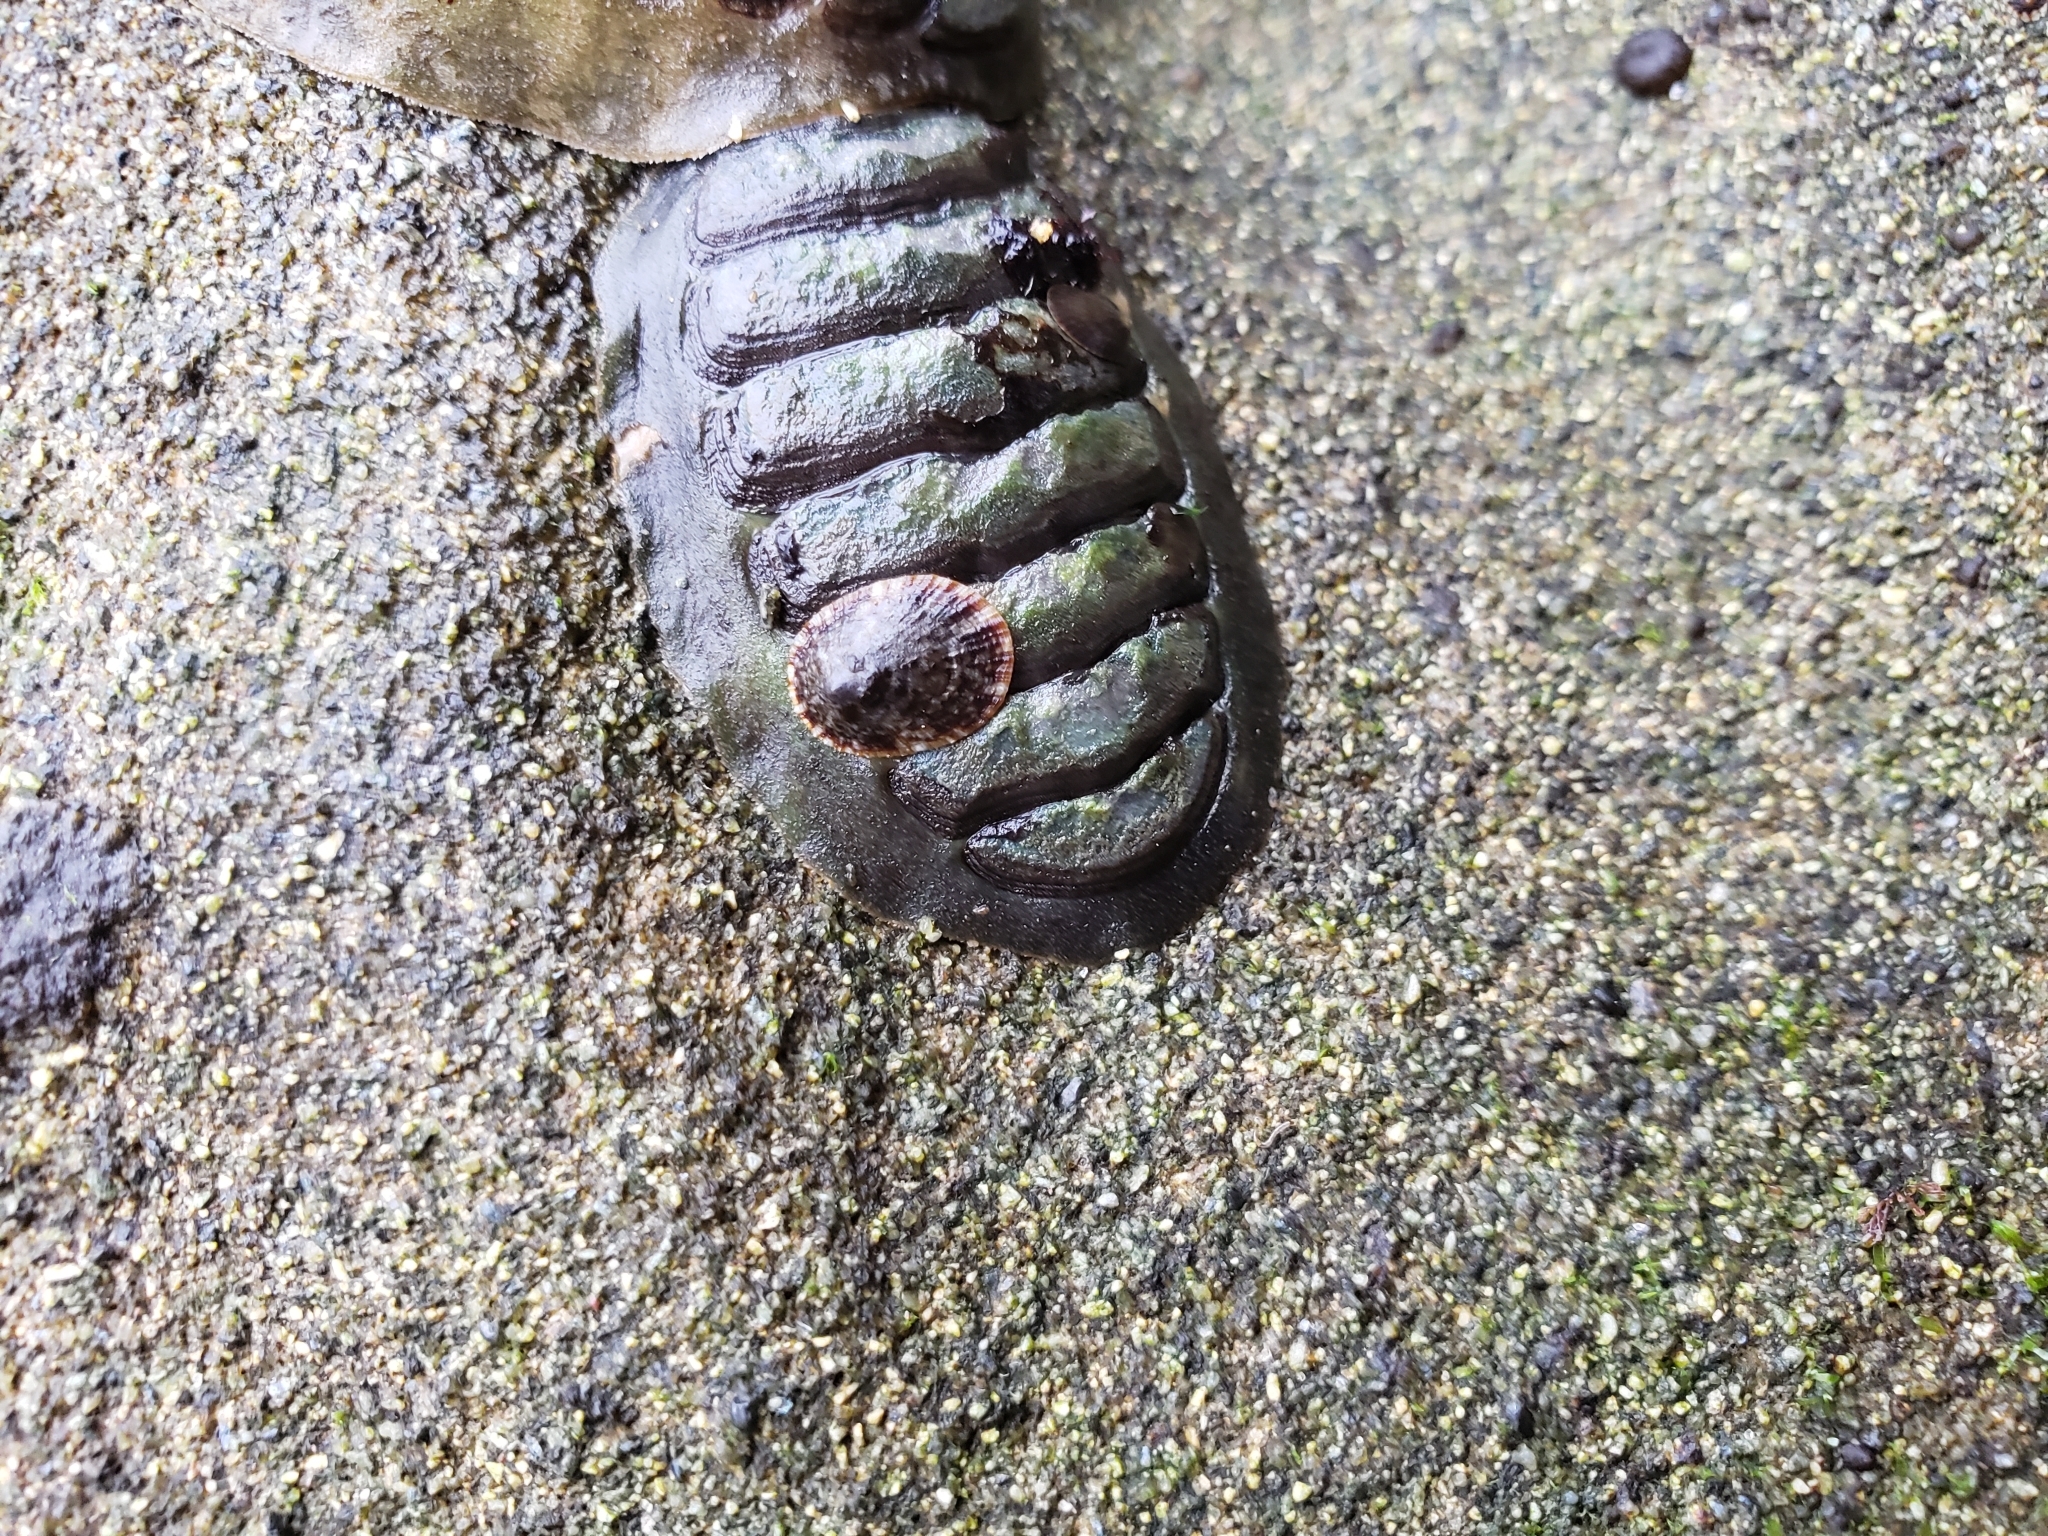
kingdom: Animalia
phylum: Mollusca
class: Polyplacophora
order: Chitonida
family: Tonicellidae
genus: Cyanoplax
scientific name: Cyanoplax hartwegii
